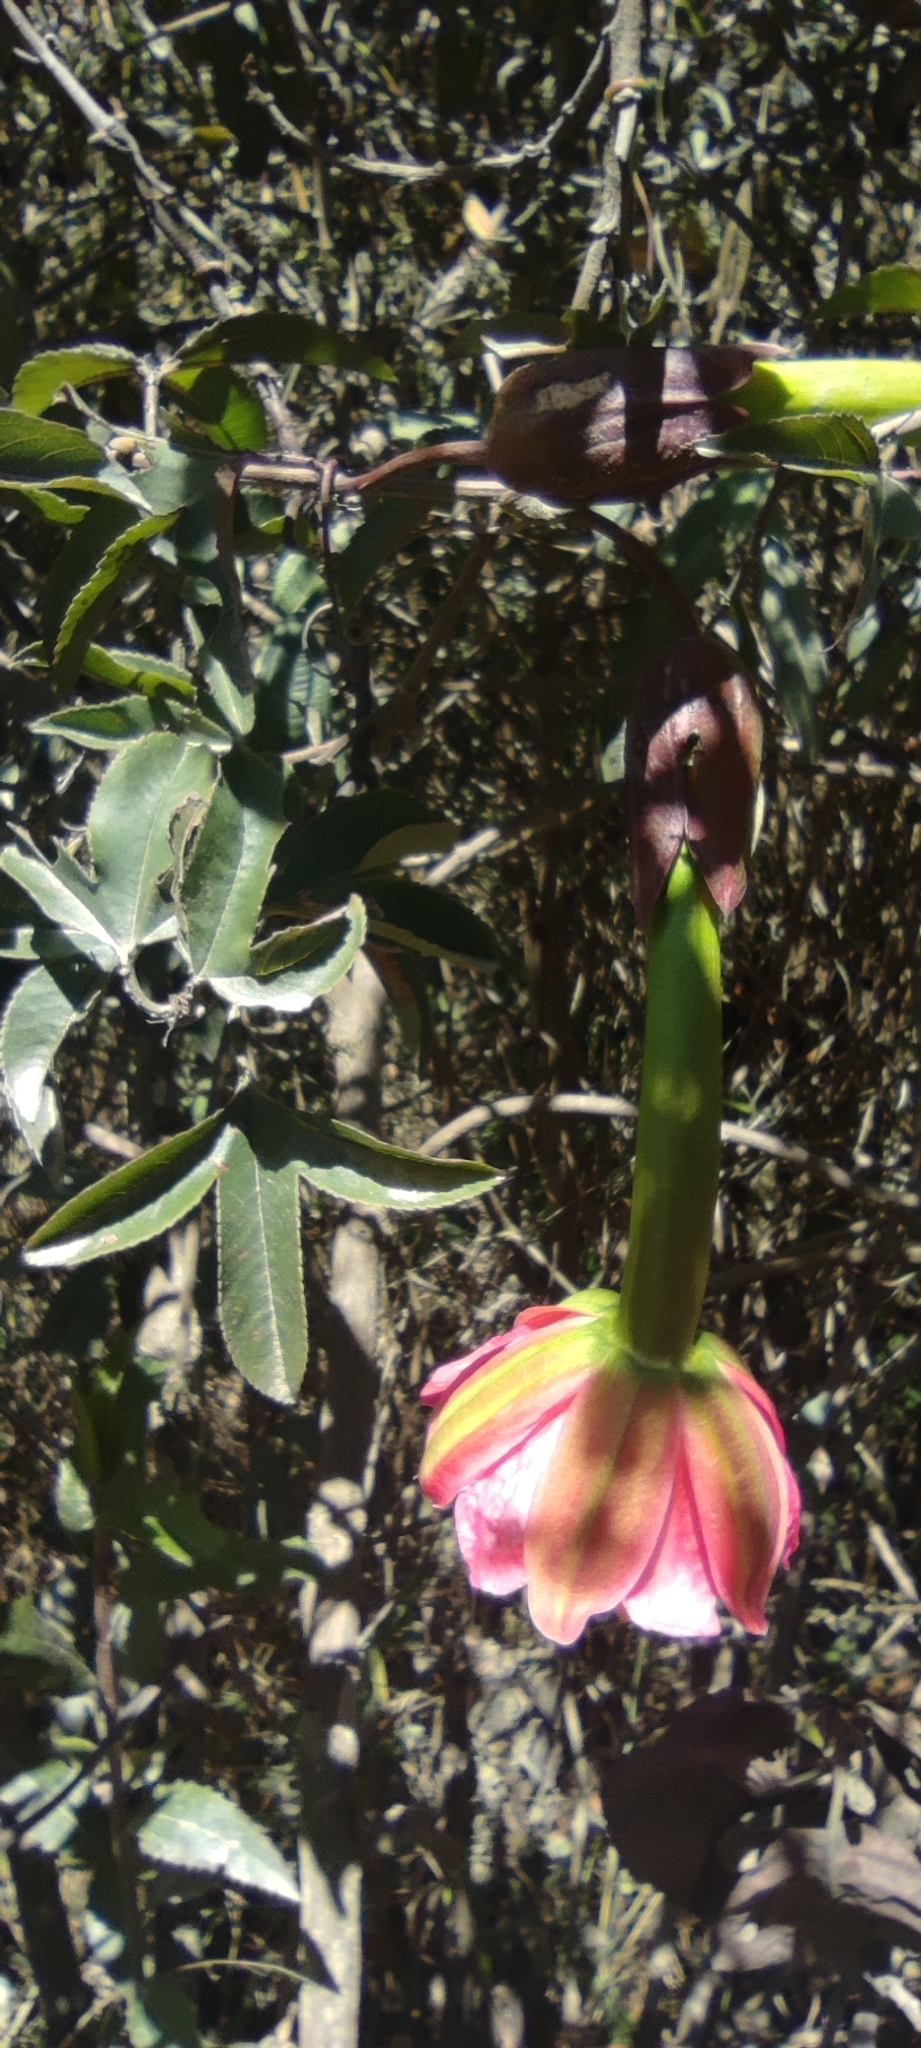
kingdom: Plantae
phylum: Tracheophyta
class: Magnoliopsida
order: Malpighiales
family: Passifloraceae
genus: Passiflora
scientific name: Passiflora mixta
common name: Passion flower
